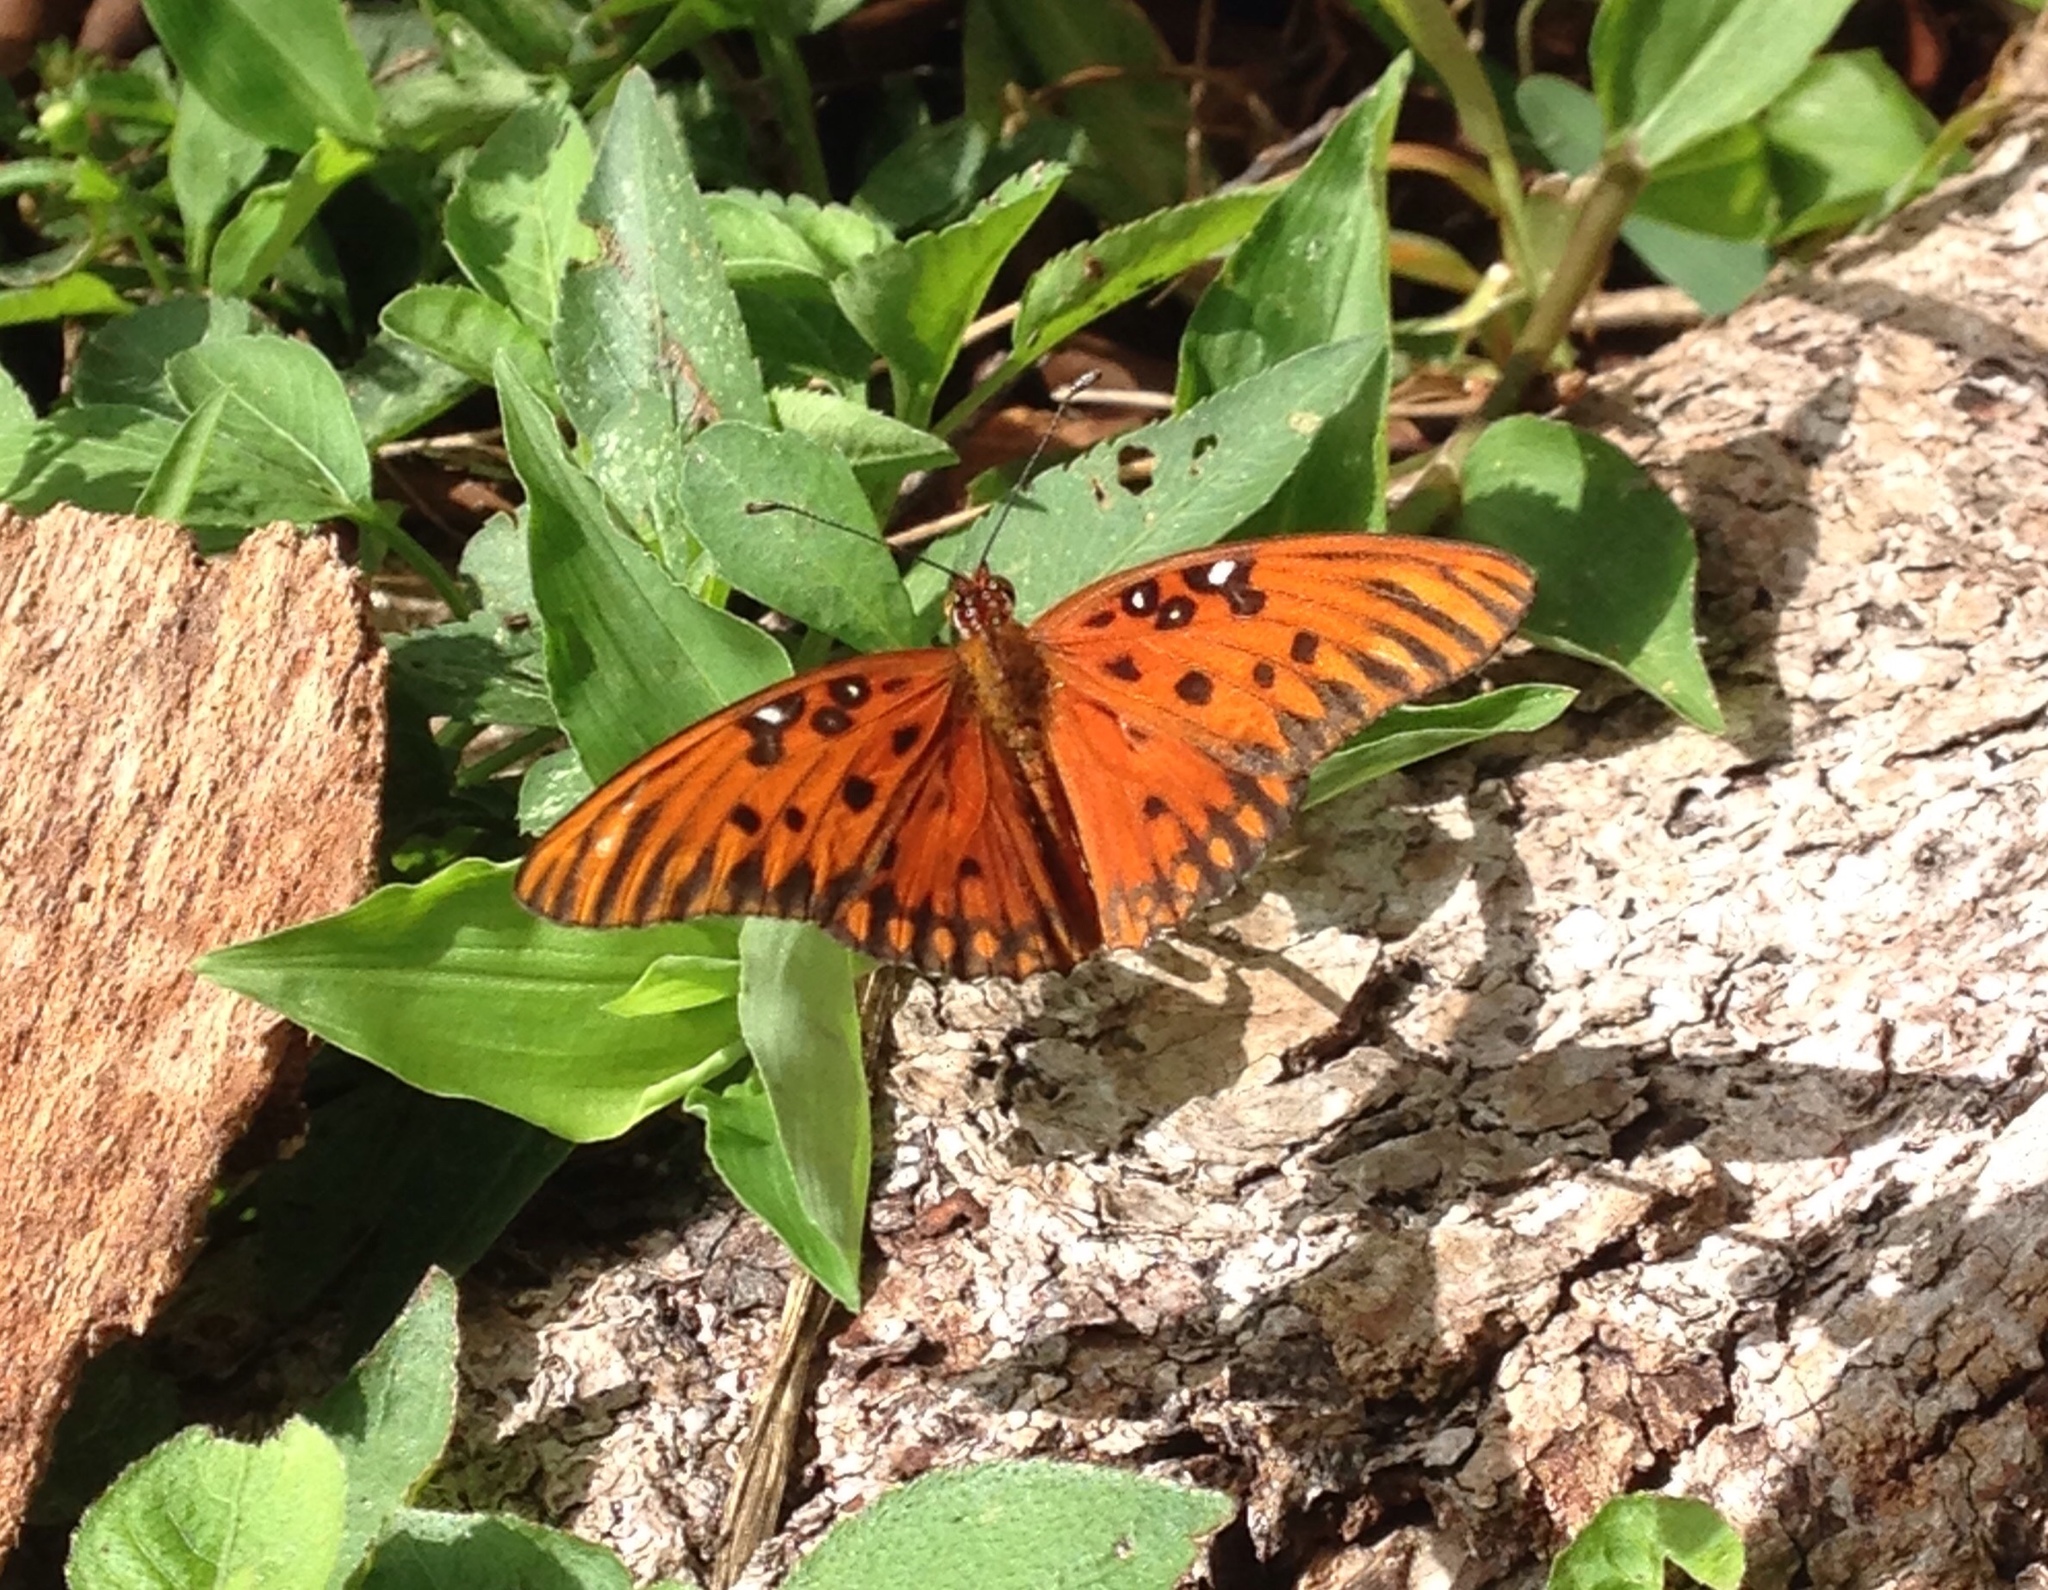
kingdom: Animalia
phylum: Arthropoda
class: Insecta
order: Lepidoptera
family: Nymphalidae
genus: Dione
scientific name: Dione vanillae
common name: Gulf fritillary
